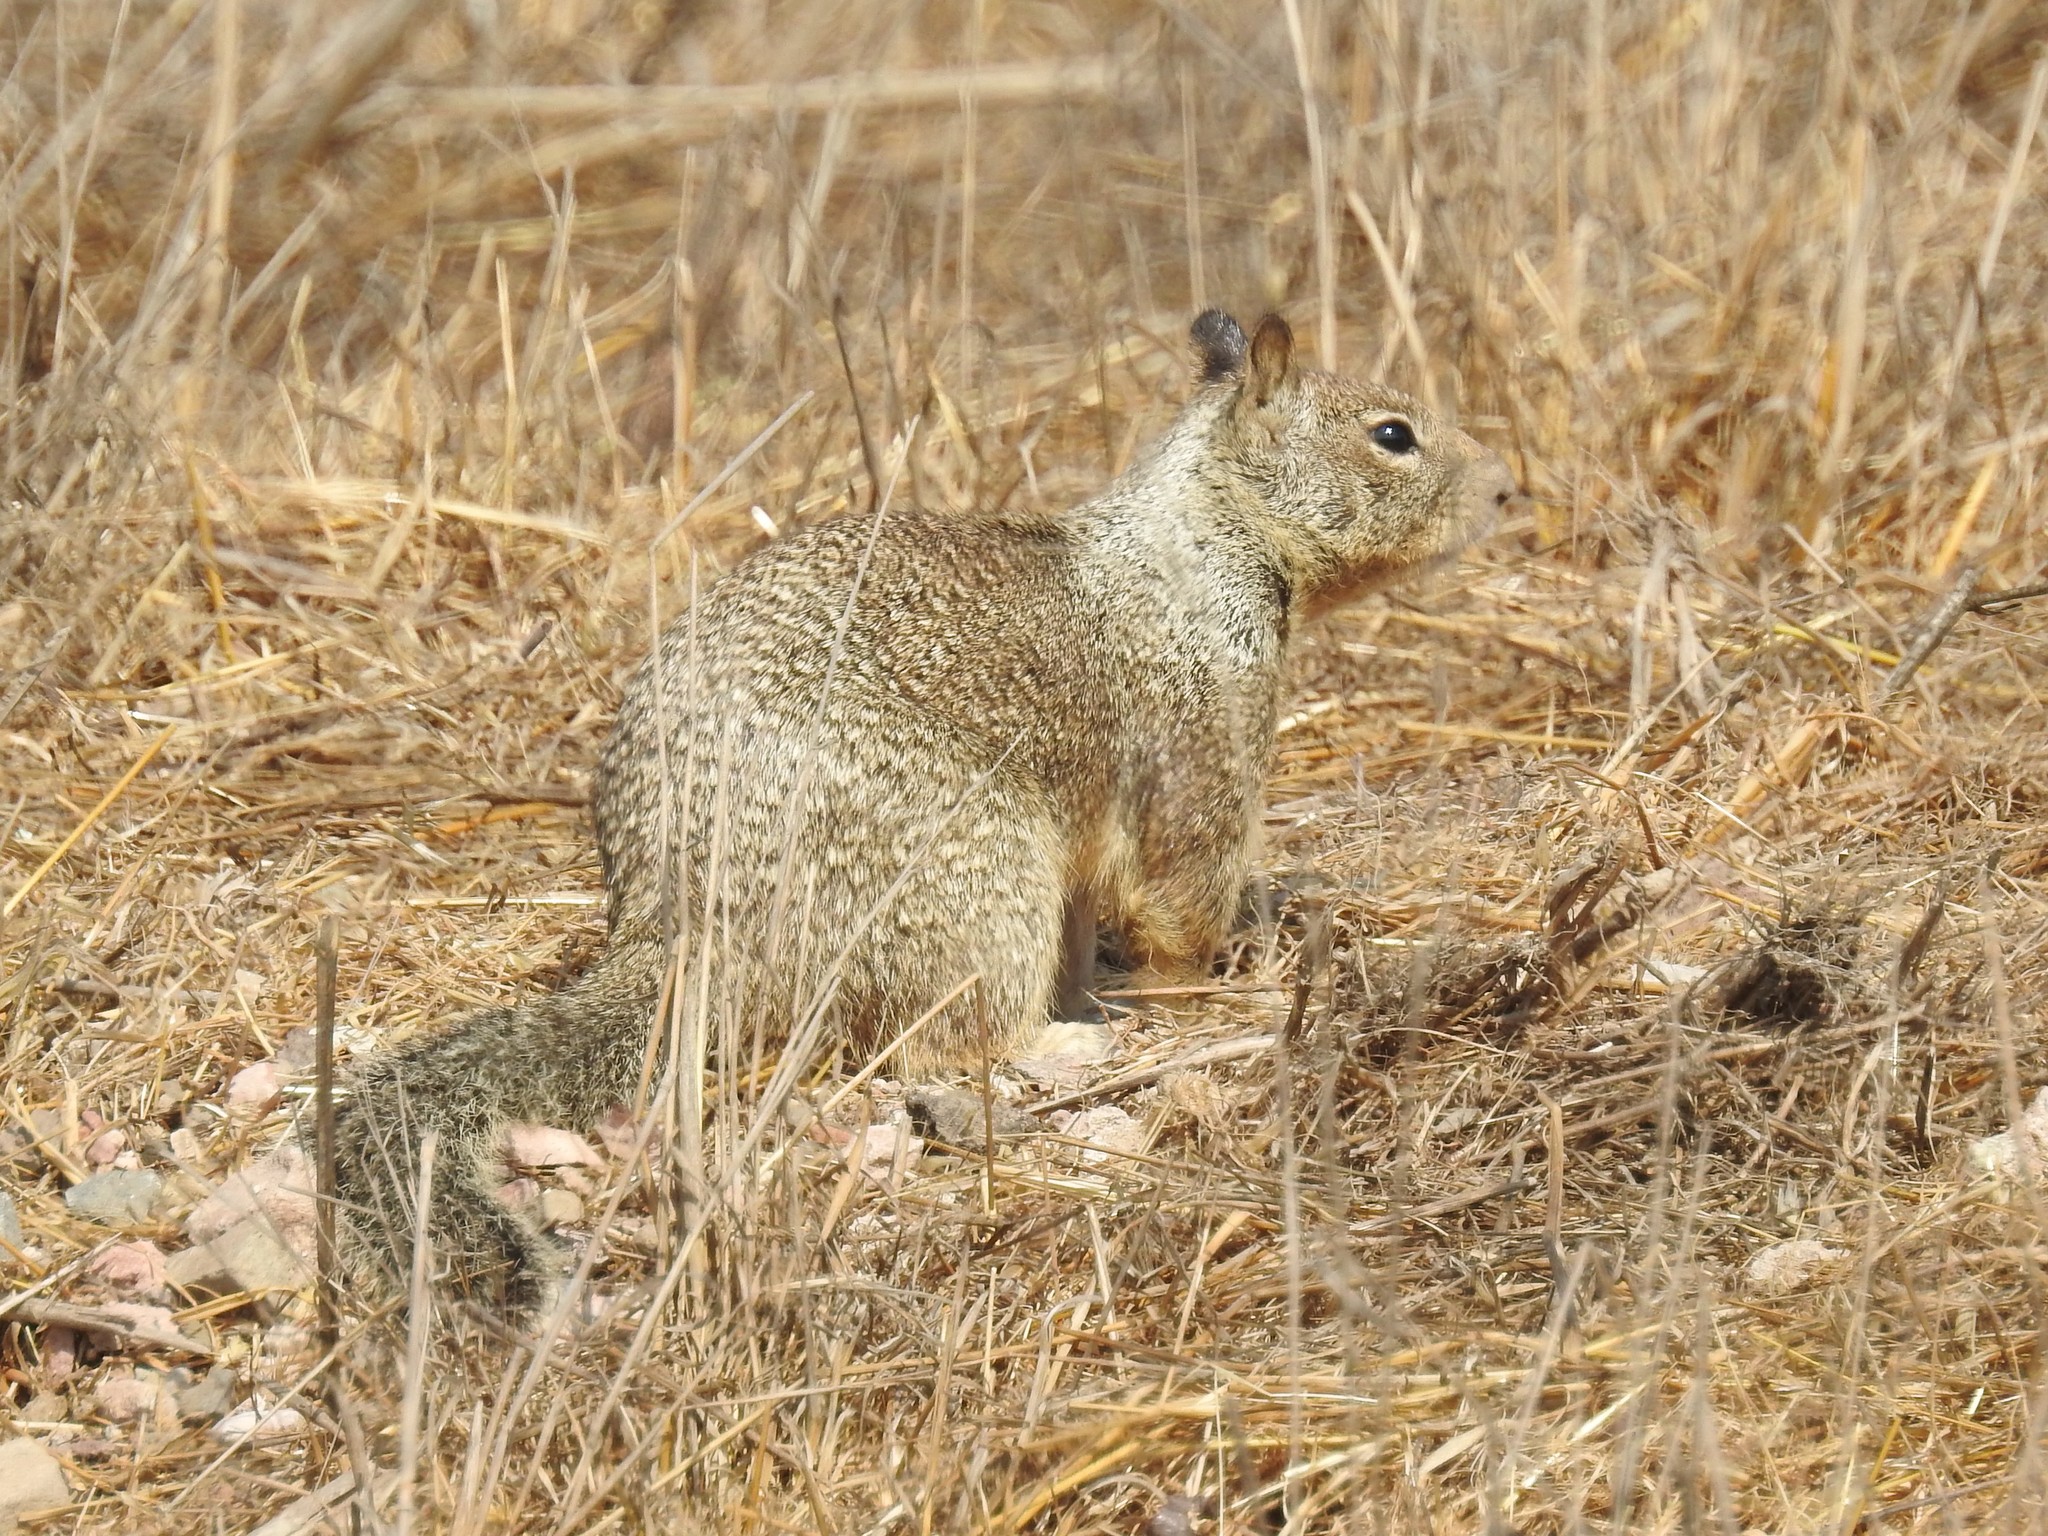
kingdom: Animalia
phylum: Chordata
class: Mammalia
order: Rodentia
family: Sciuridae
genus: Otospermophilus
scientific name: Otospermophilus beecheyi
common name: California ground squirrel
